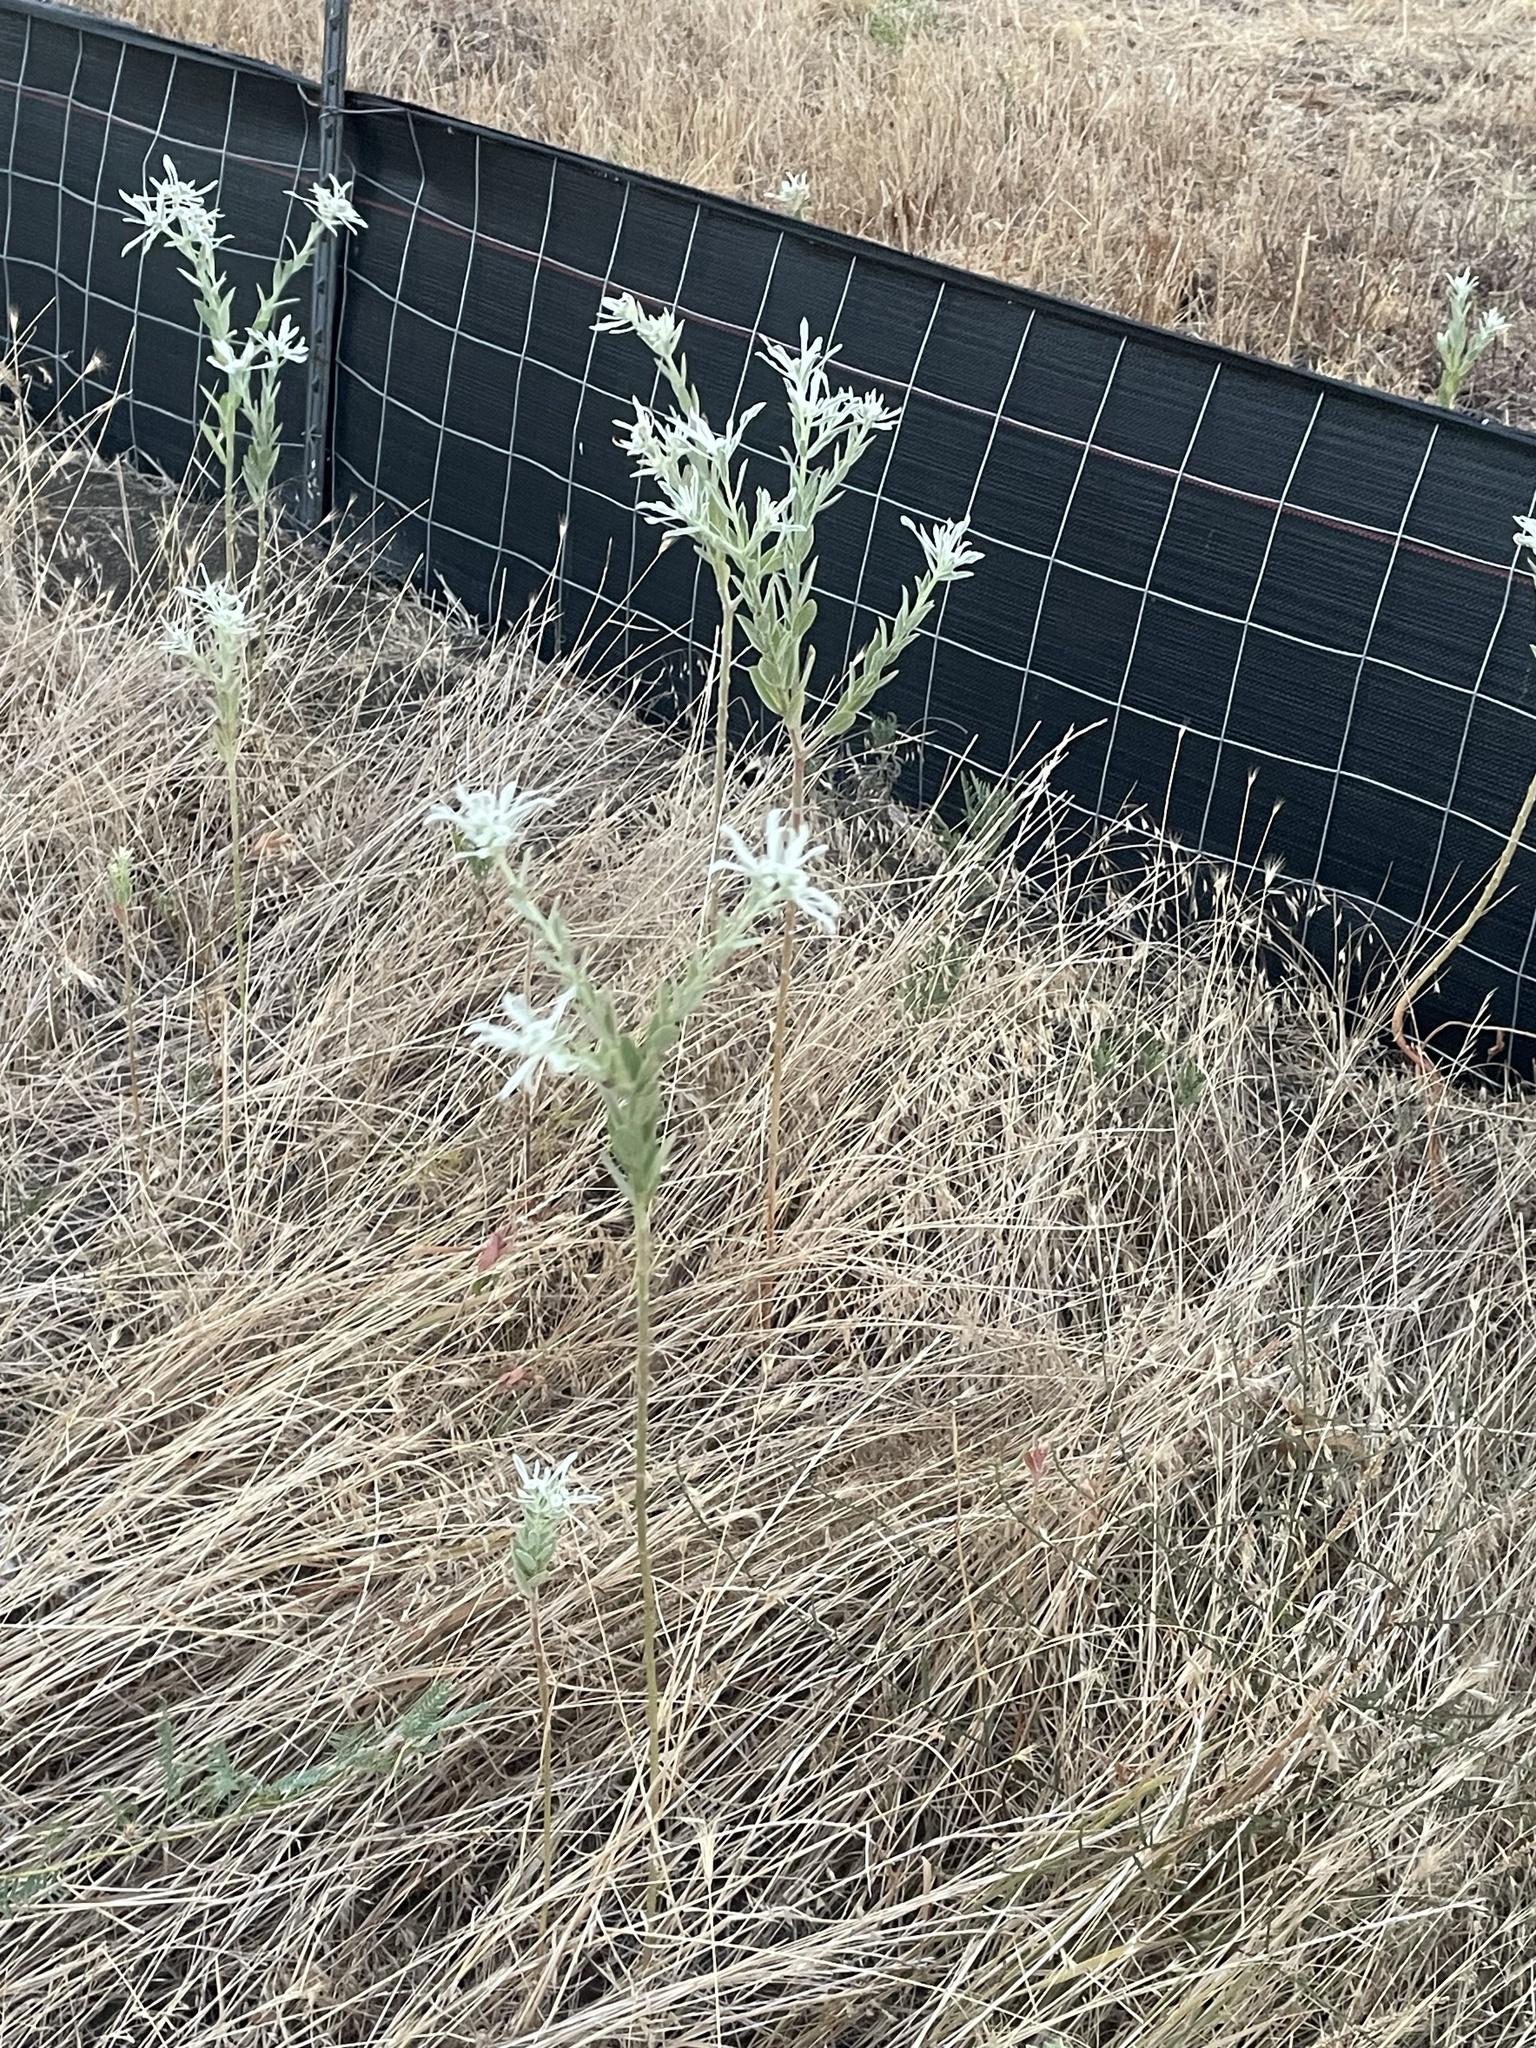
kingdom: Plantae
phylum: Tracheophyta
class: Magnoliopsida
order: Malpighiales
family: Euphorbiaceae
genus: Euphorbia
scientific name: Euphorbia bicolor
